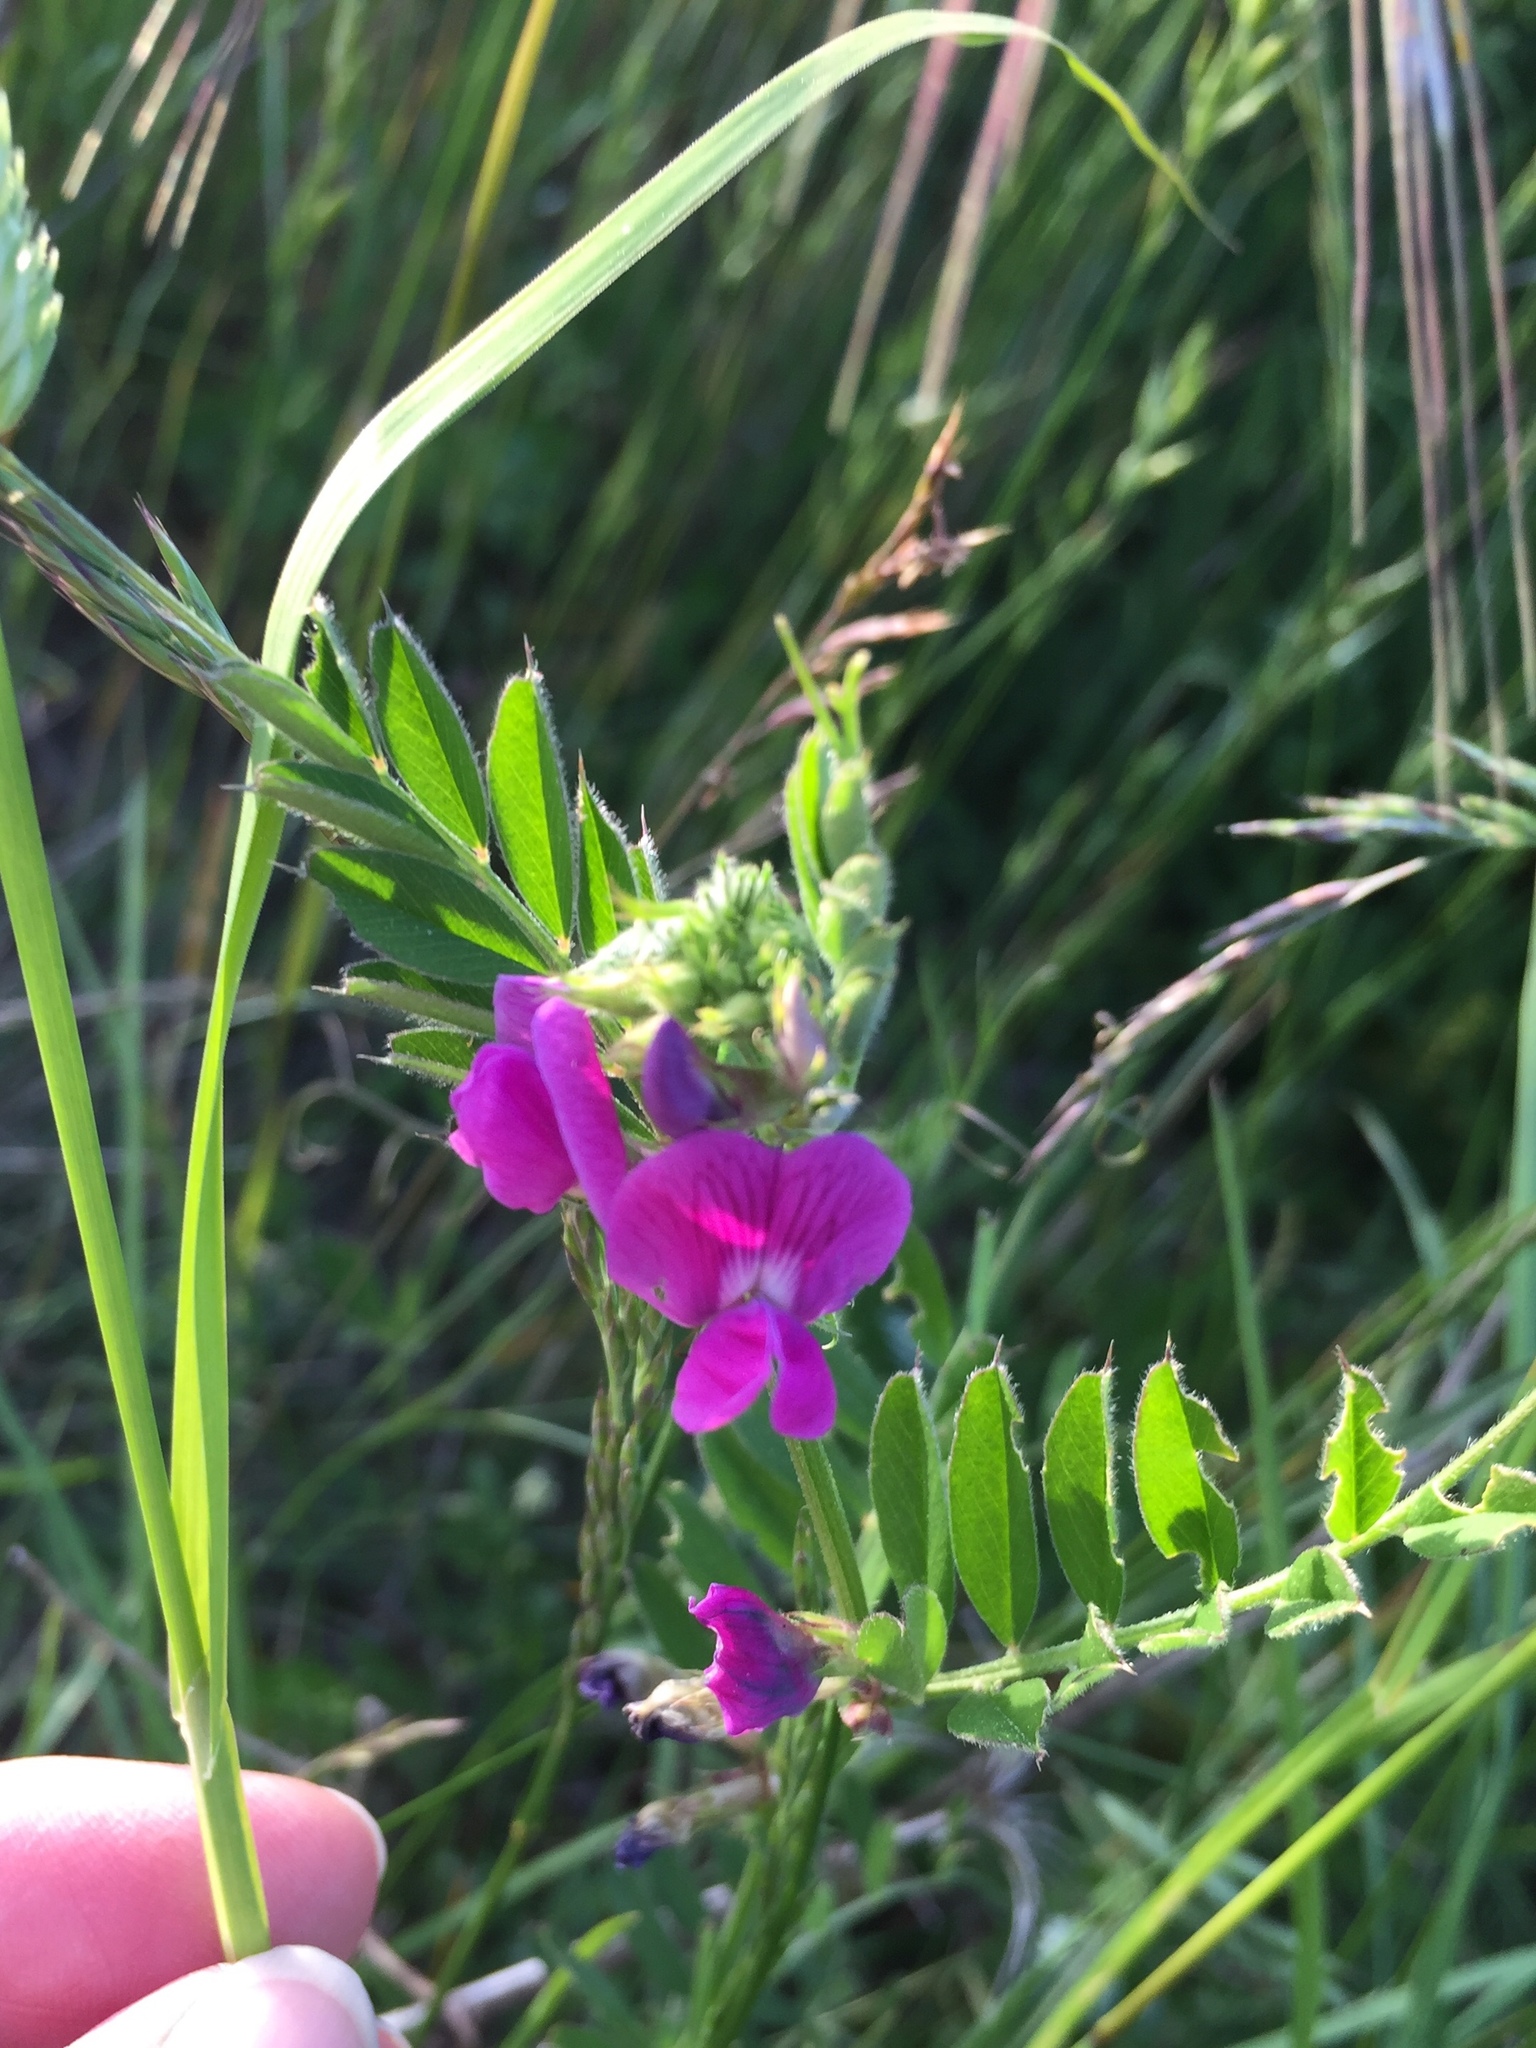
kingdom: Plantae
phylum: Tracheophyta
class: Magnoliopsida
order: Fabales
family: Fabaceae
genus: Vicia
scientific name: Vicia sativa
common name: Garden vetch
